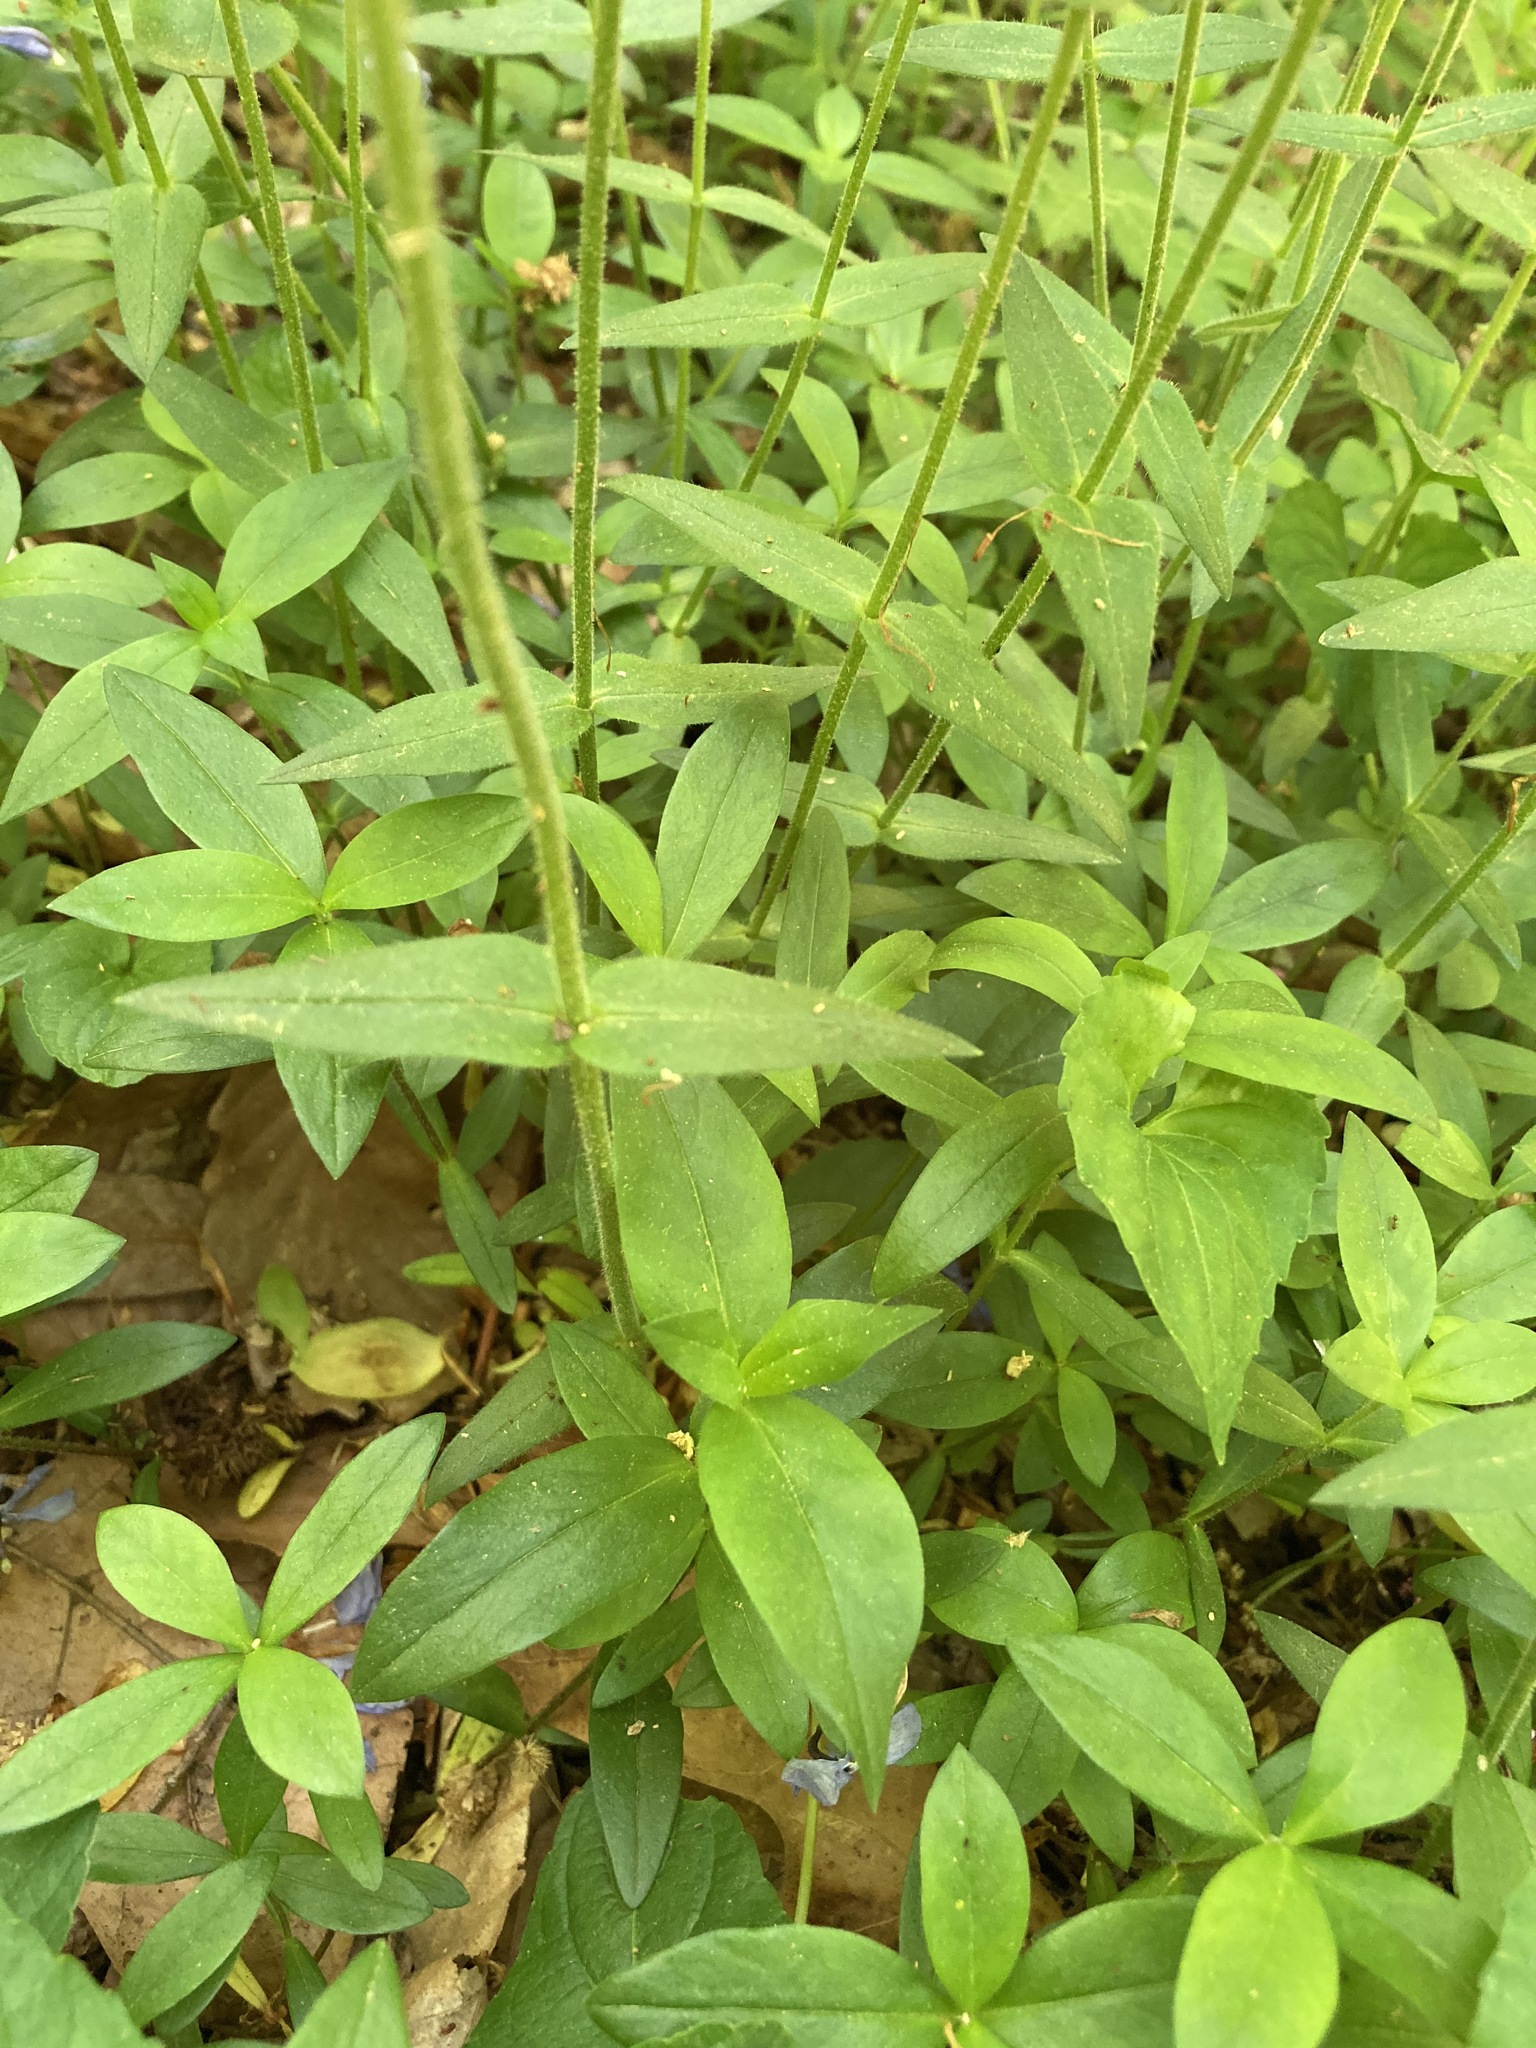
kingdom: Plantae
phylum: Tracheophyta
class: Magnoliopsida
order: Ericales
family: Polemoniaceae
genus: Phlox
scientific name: Phlox divaricata
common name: Blue phlox
